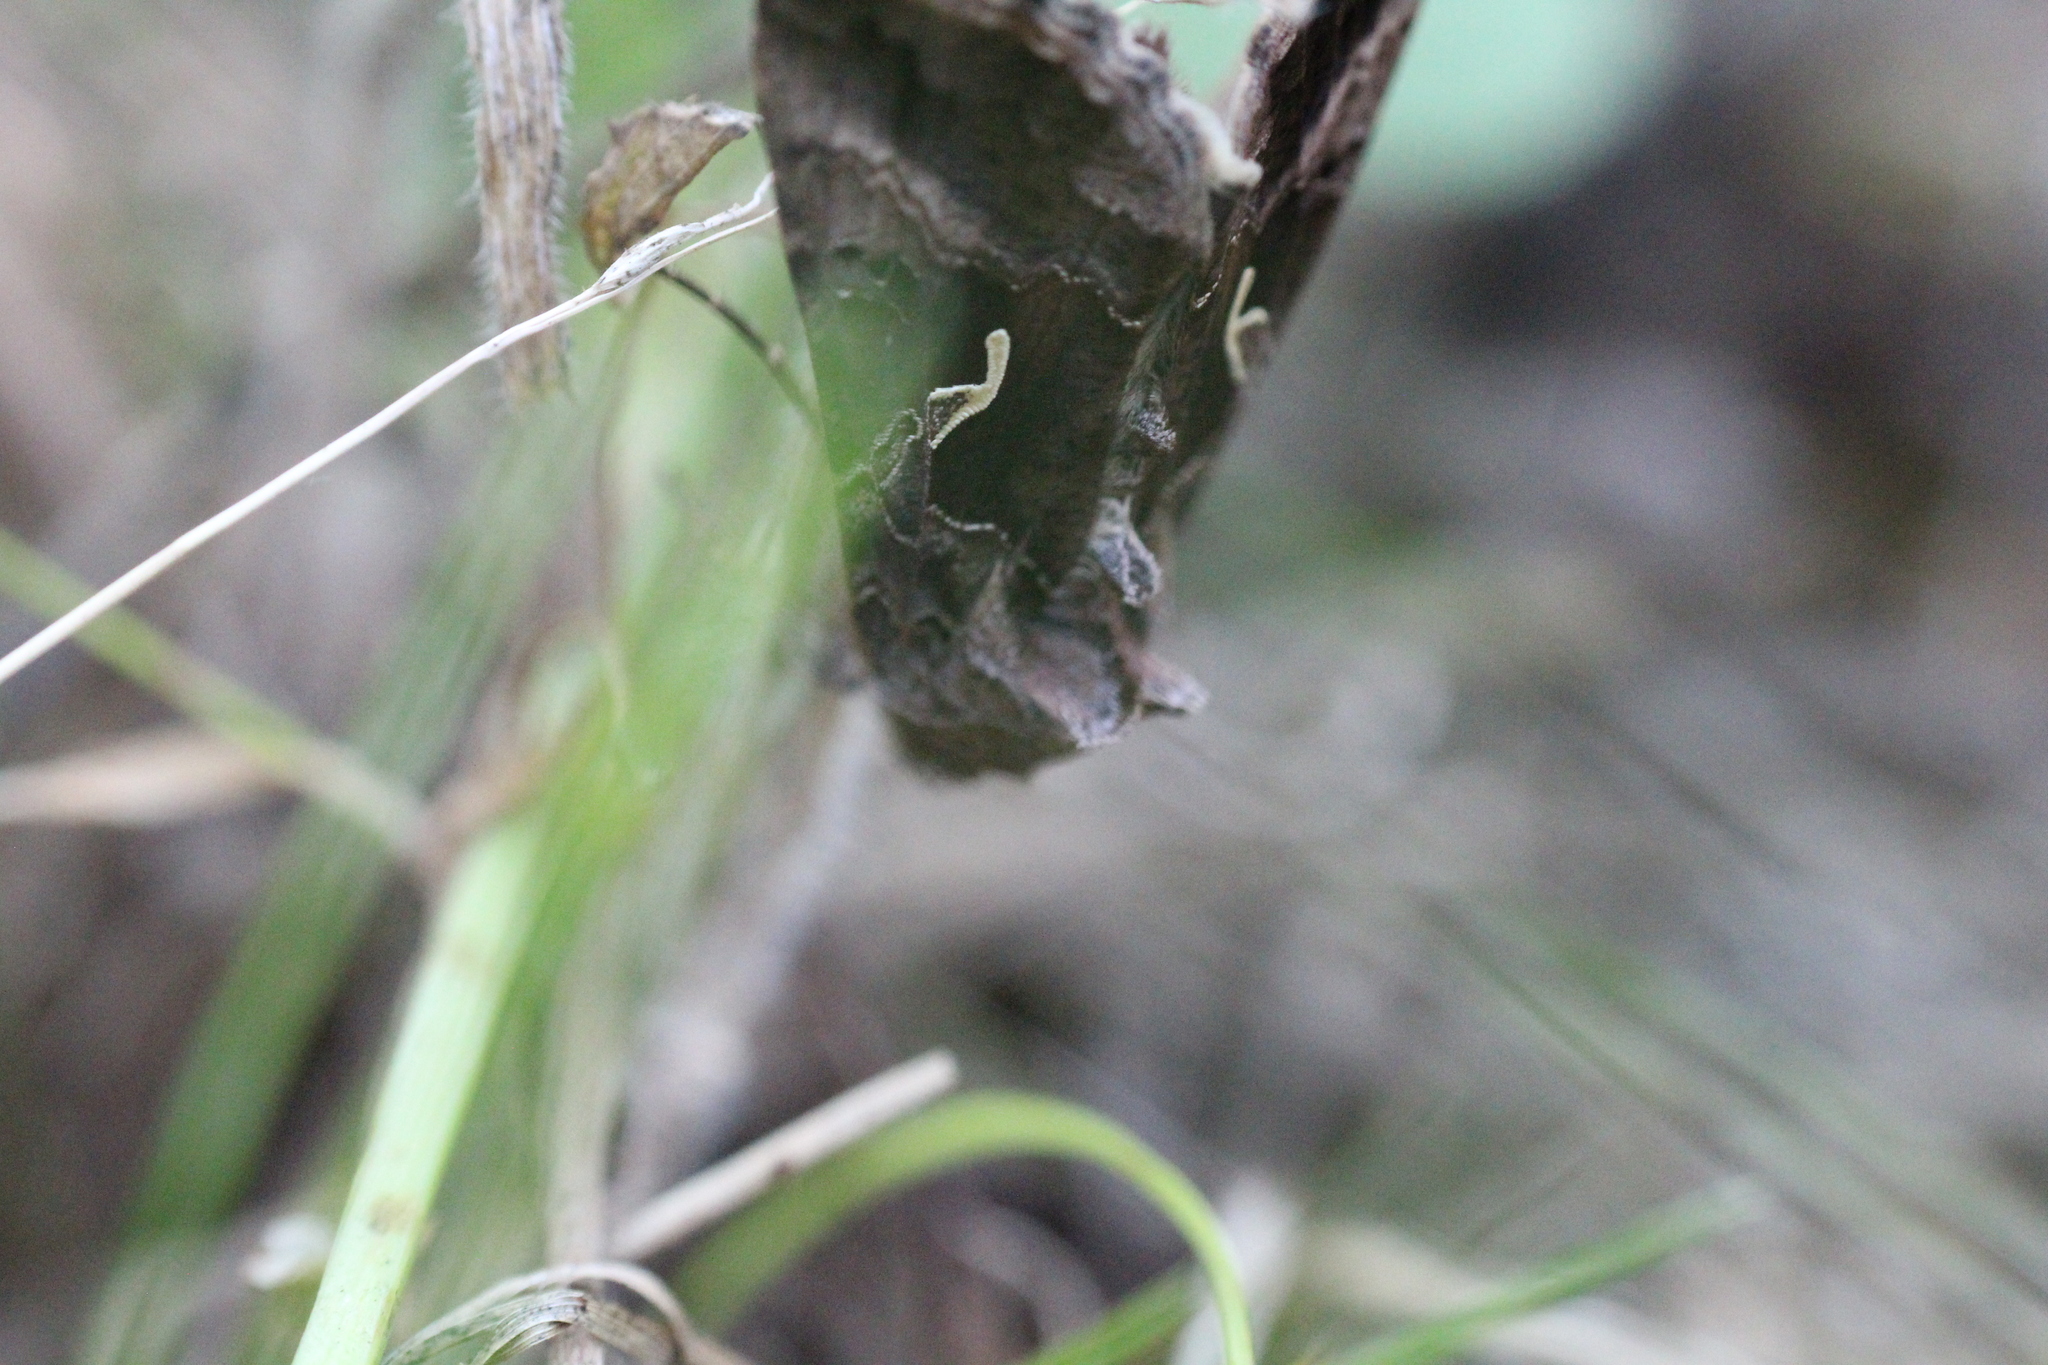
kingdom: Animalia
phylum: Arthropoda
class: Insecta
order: Lepidoptera
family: Noctuidae
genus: Autographa
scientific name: Autographa gamma
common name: Silver y
